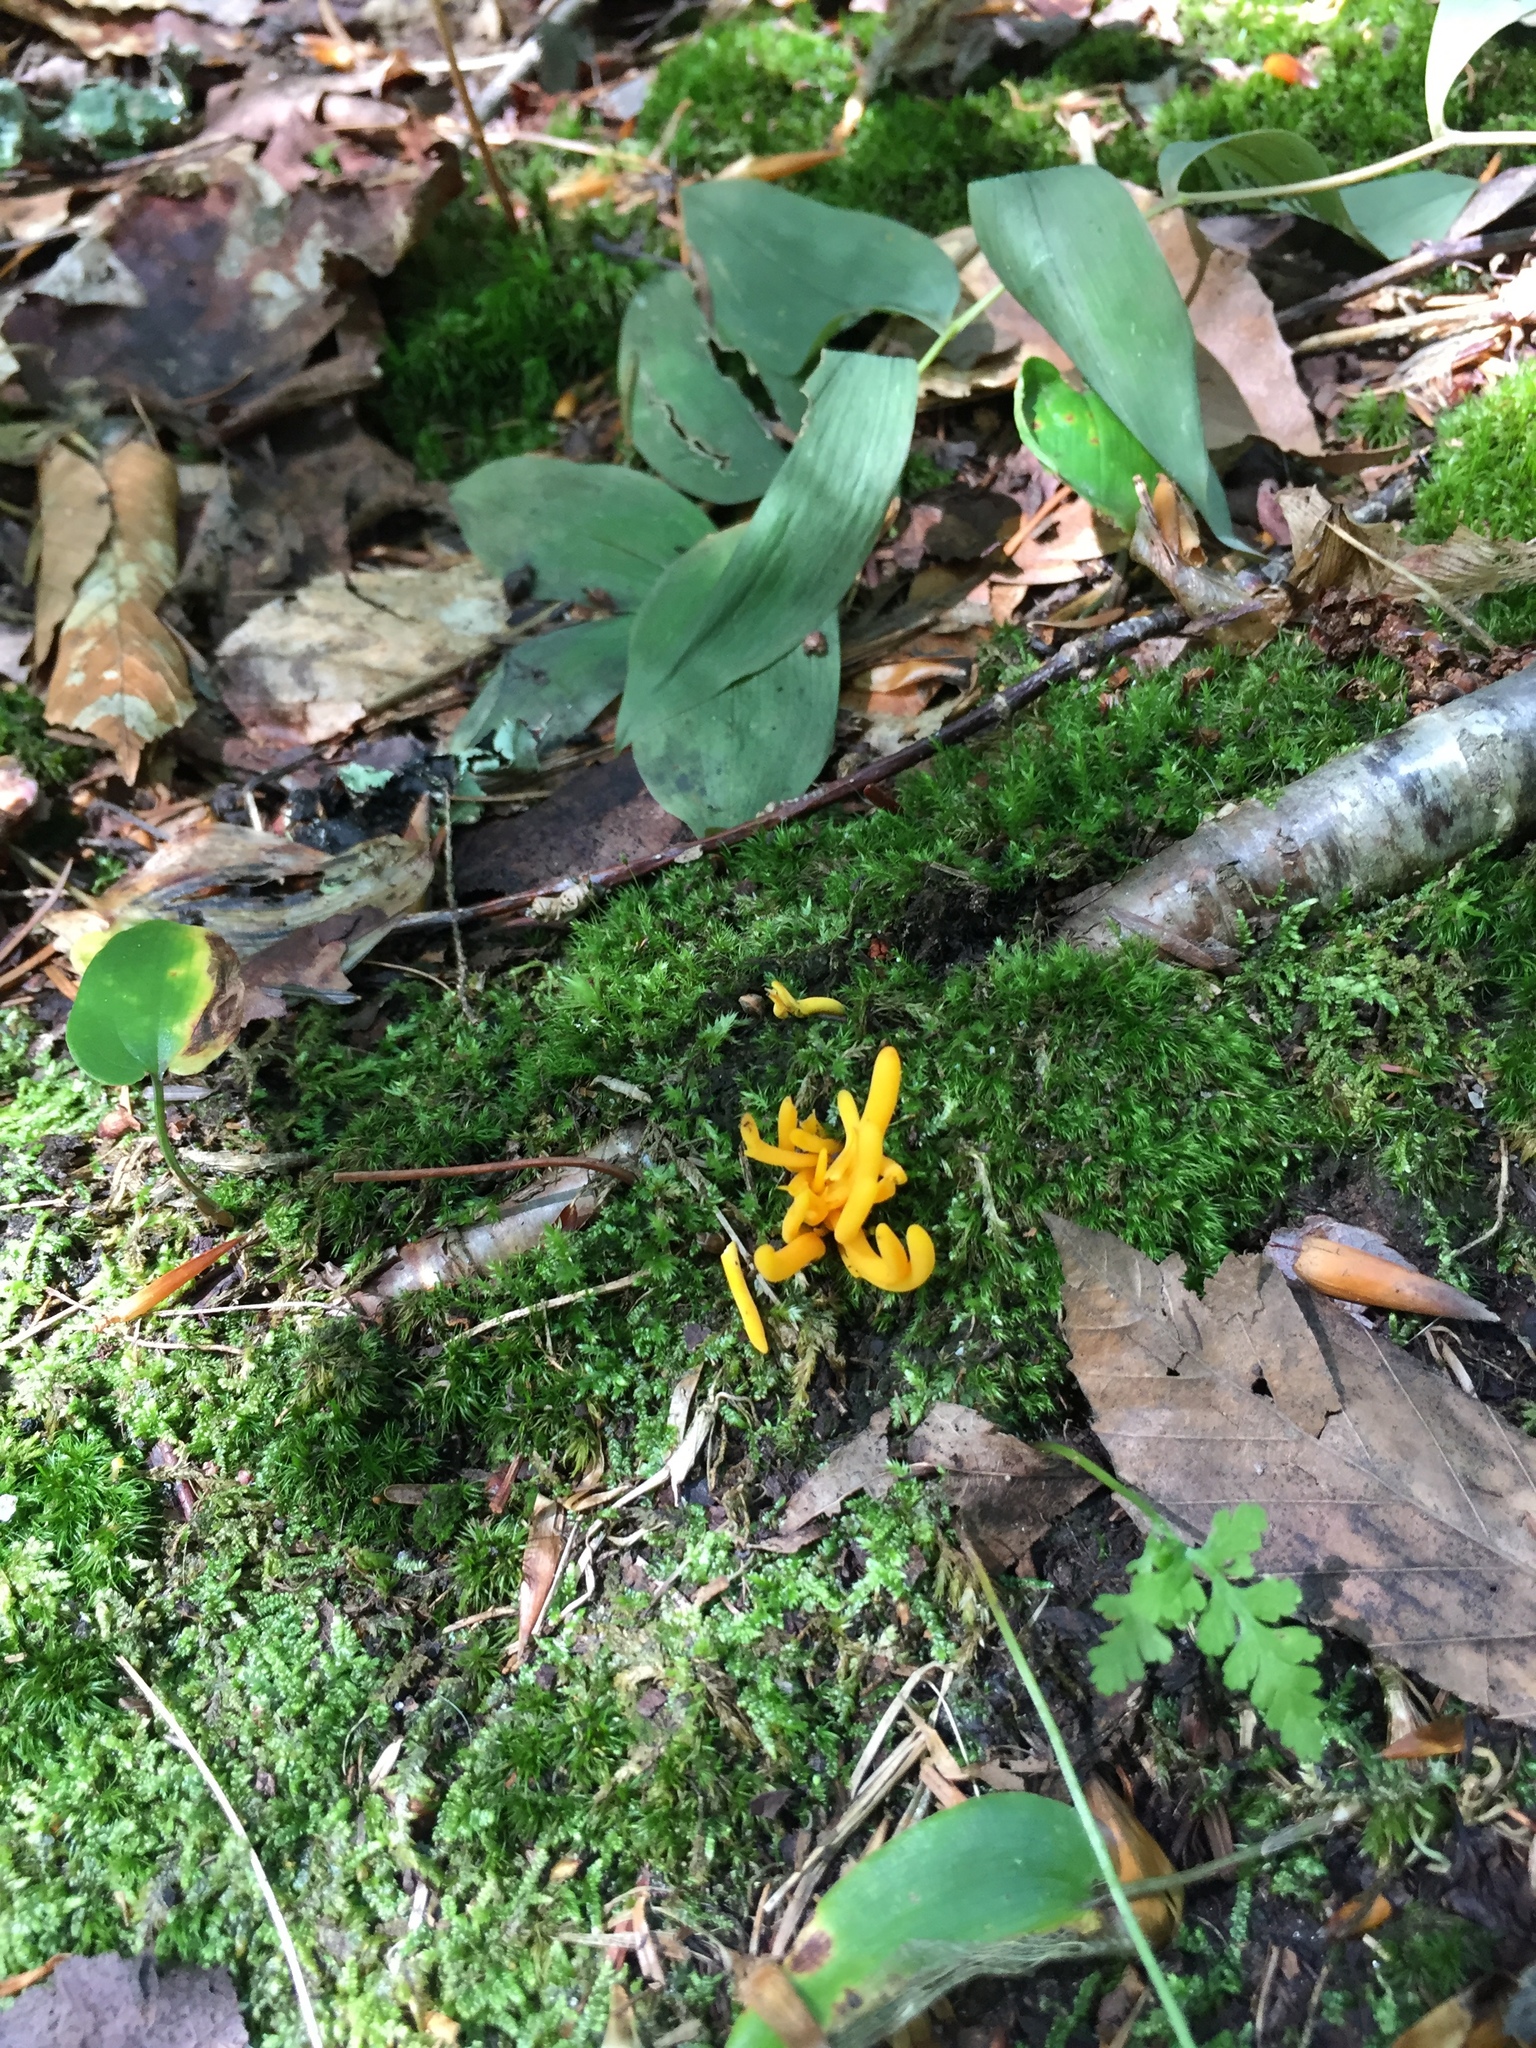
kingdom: Fungi
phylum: Basidiomycota
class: Agaricomycetes
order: Agaricales
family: Clavariaceae
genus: Clavulinopsis
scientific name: Clavulinopsis fusiformis
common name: Golden spindles
